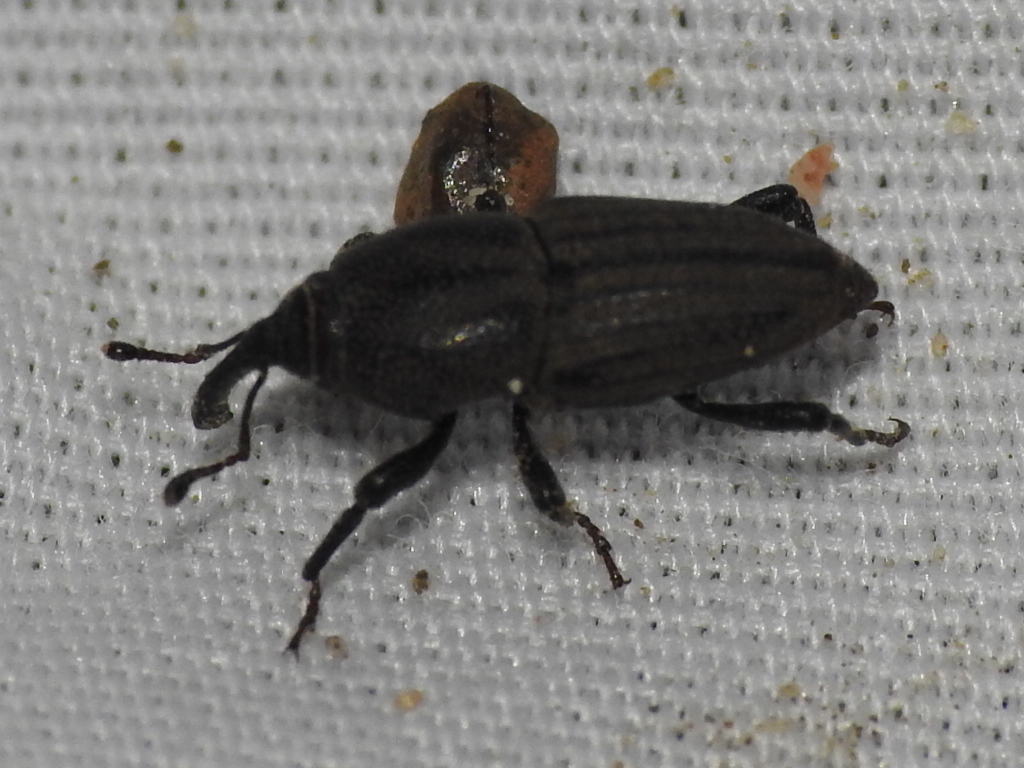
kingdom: Animalia
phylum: Arthropoda
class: Insecta
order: Coleoptera
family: Dryophthoridae
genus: Sphenophorus
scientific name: Sphenophorus interstitialis
